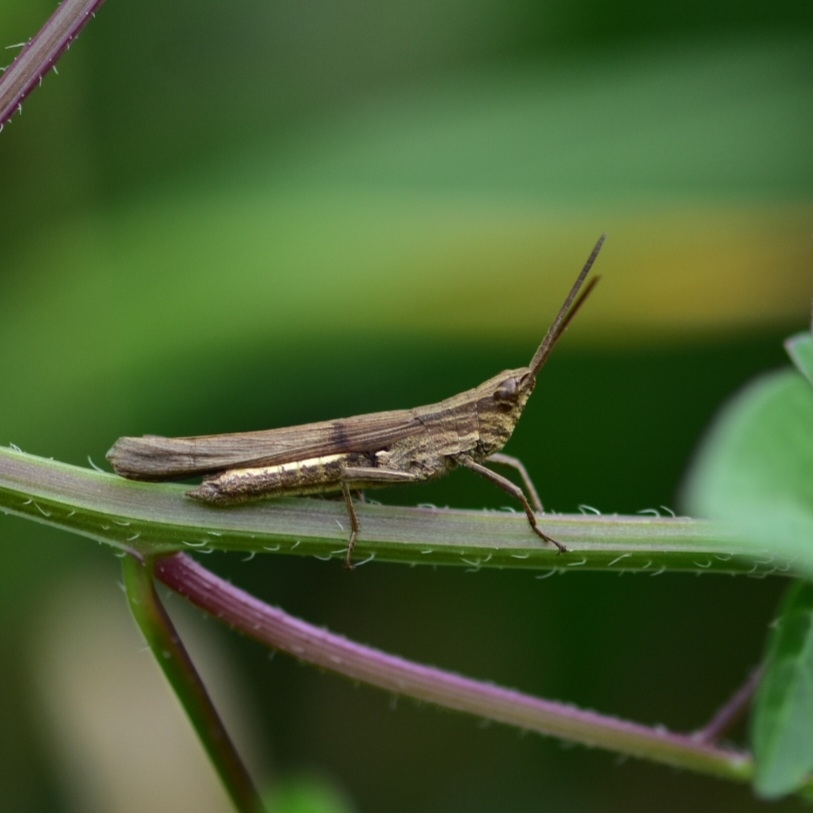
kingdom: Animalia
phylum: Arthropoda
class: Insecta
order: Orthoptera
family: Acrididae
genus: Phlaeoba
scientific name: Phlaeoba infumata
